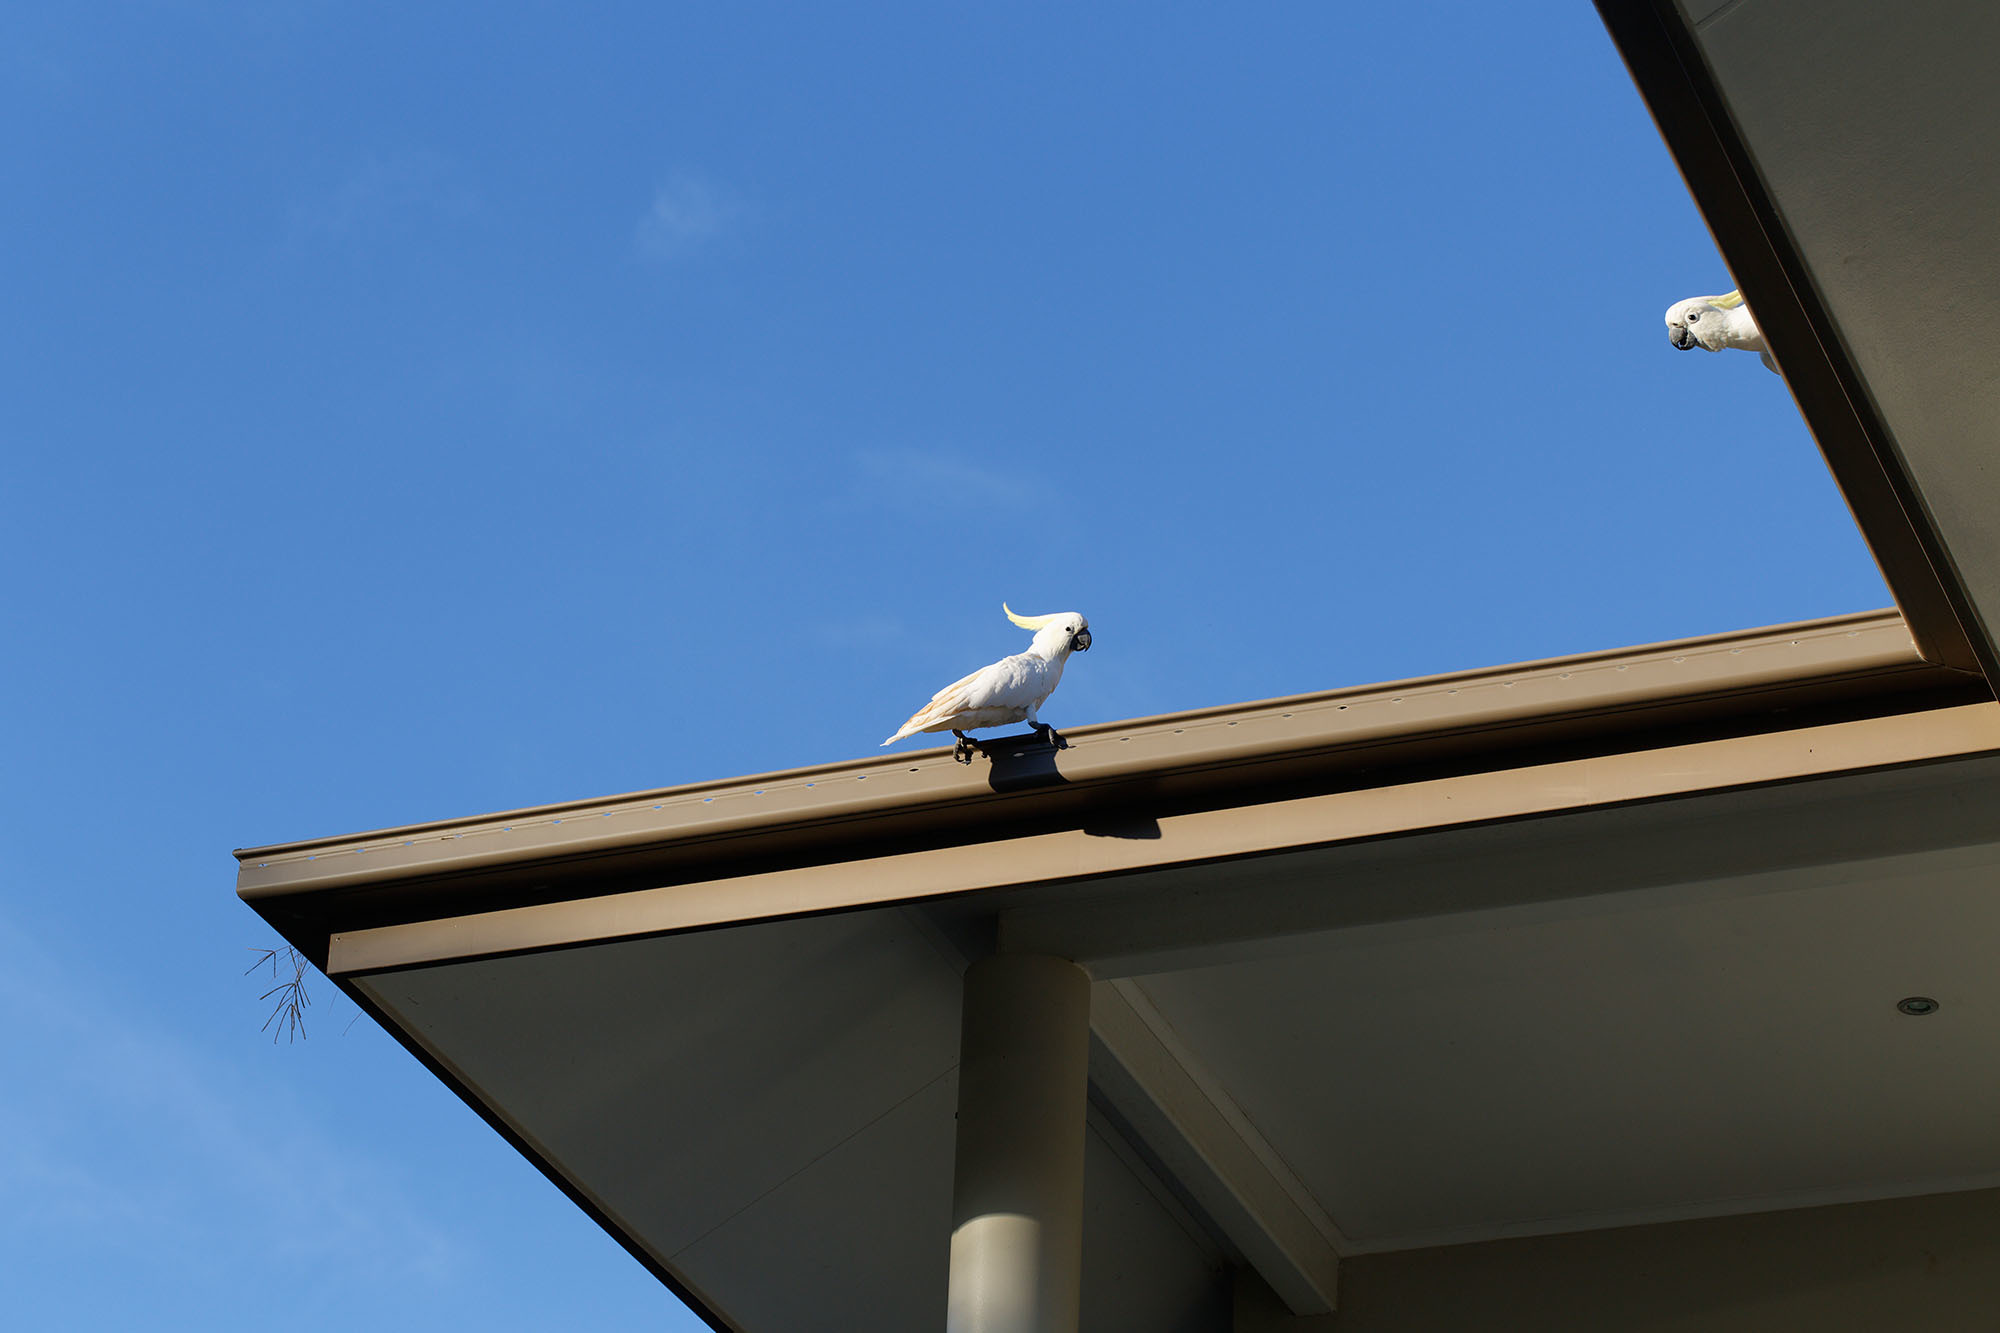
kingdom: Animalia
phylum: Chordata
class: Aves
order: Psittaciformes
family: Psittacidae
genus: Cacatua
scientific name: Cacatua galerita
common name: Sulphur-crested cockatoo
